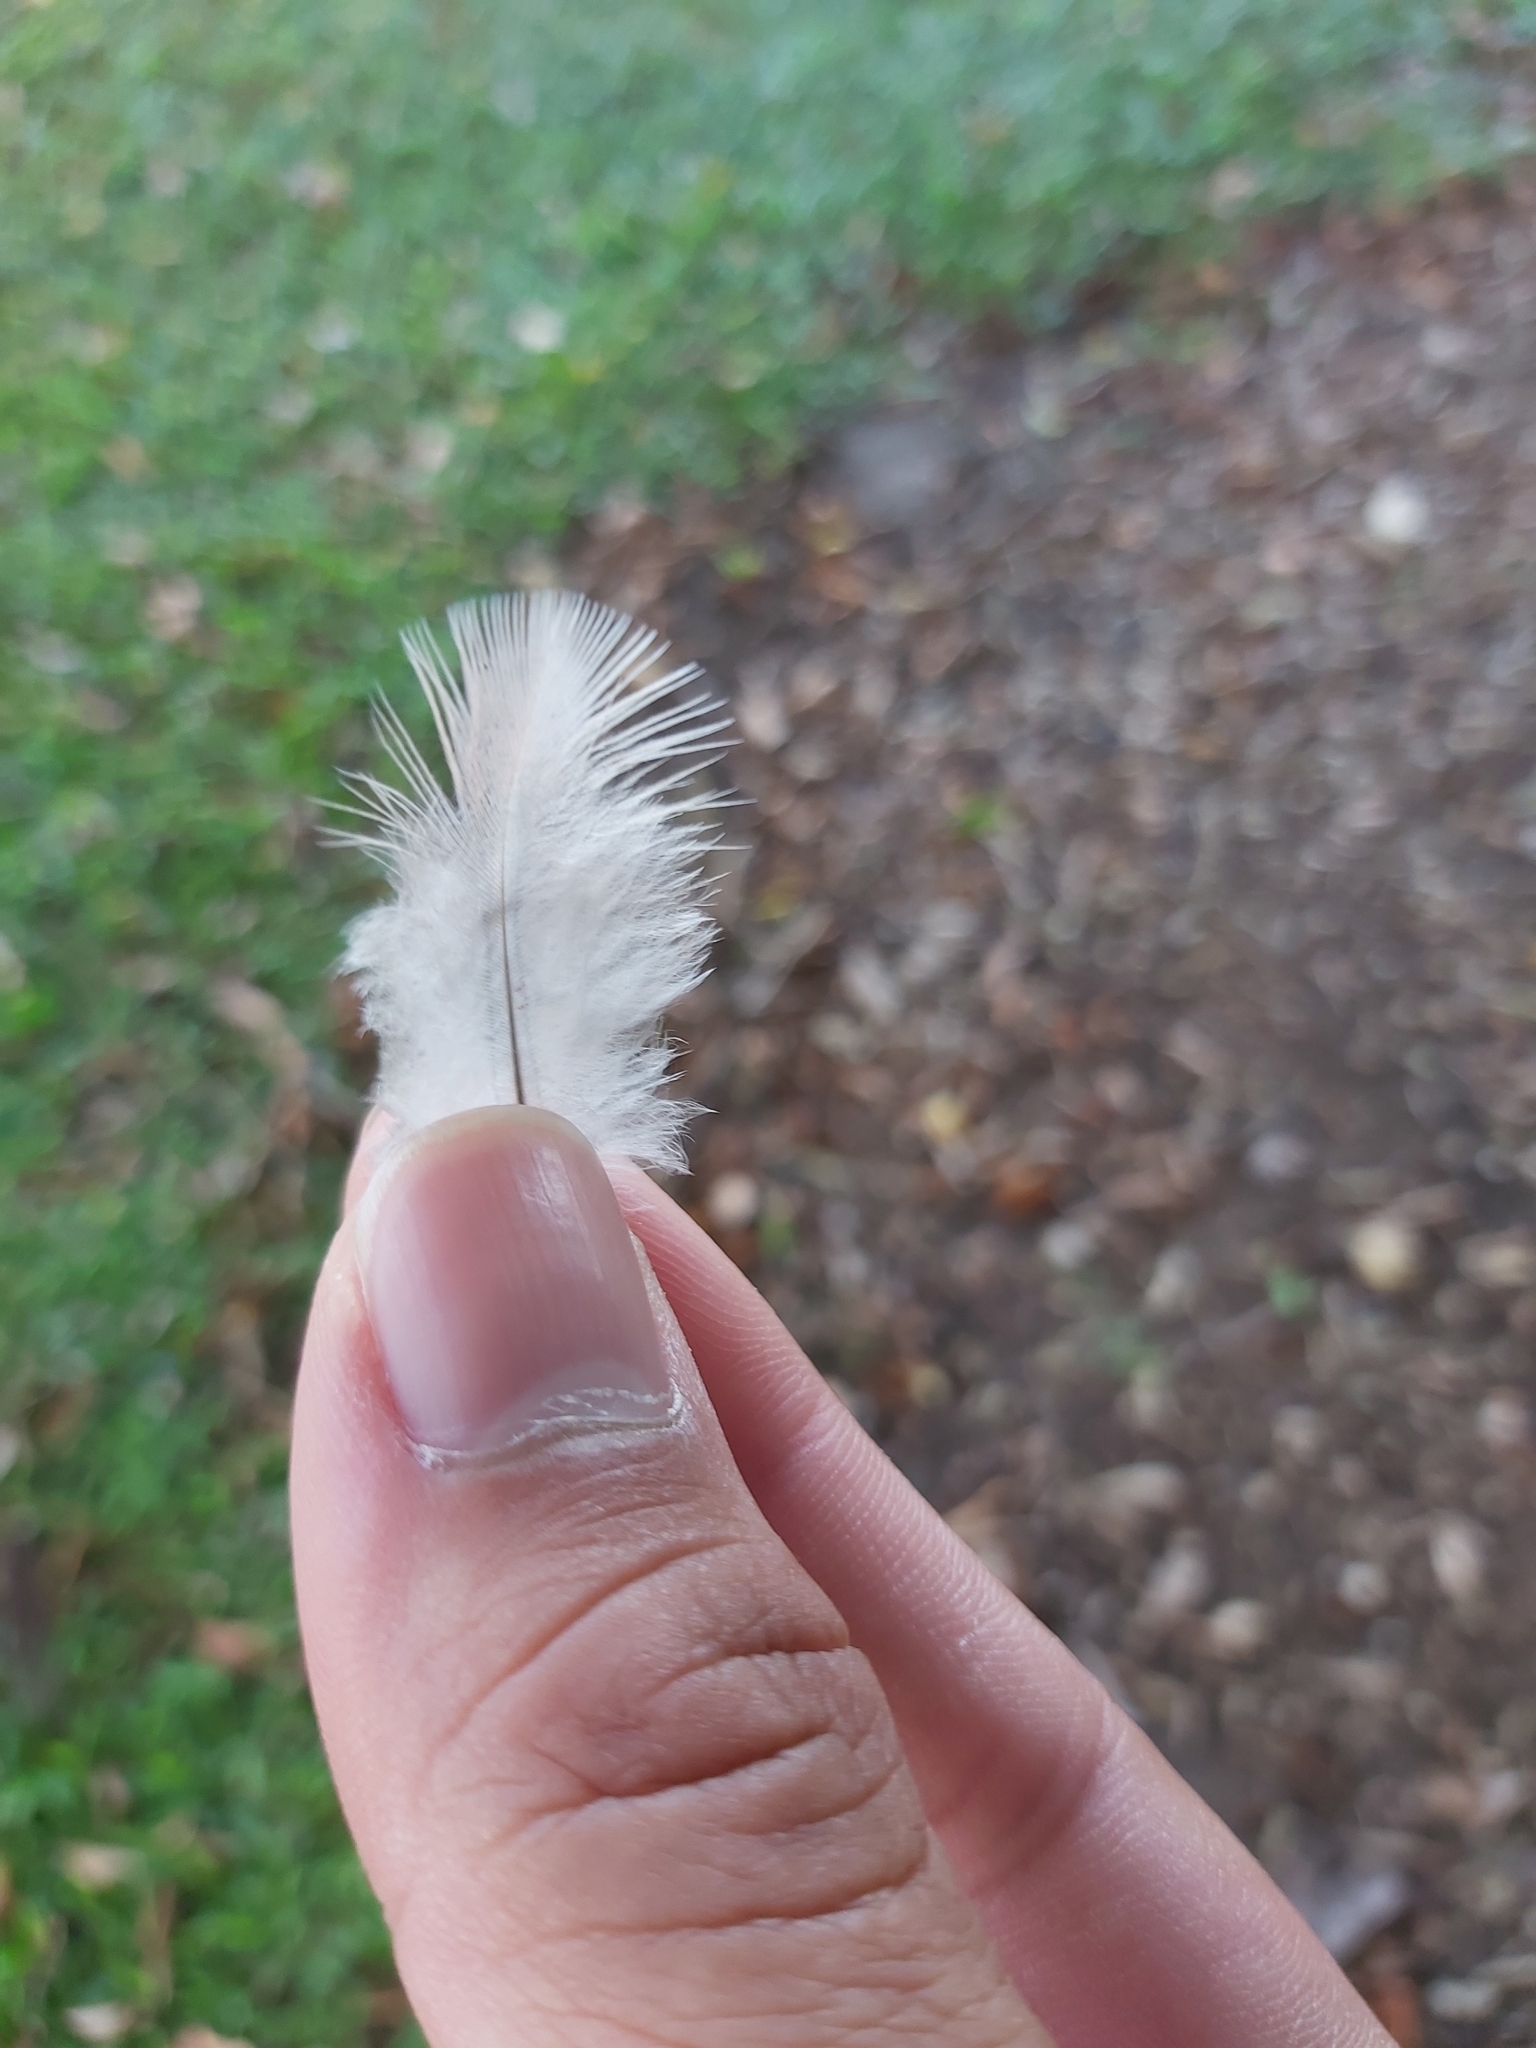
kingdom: Animalia
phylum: Chordata
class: Aves
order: Columbiformes
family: Columbidae
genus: Geopelia
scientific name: Geopelia humeralis
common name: Bar-shouldered dove
